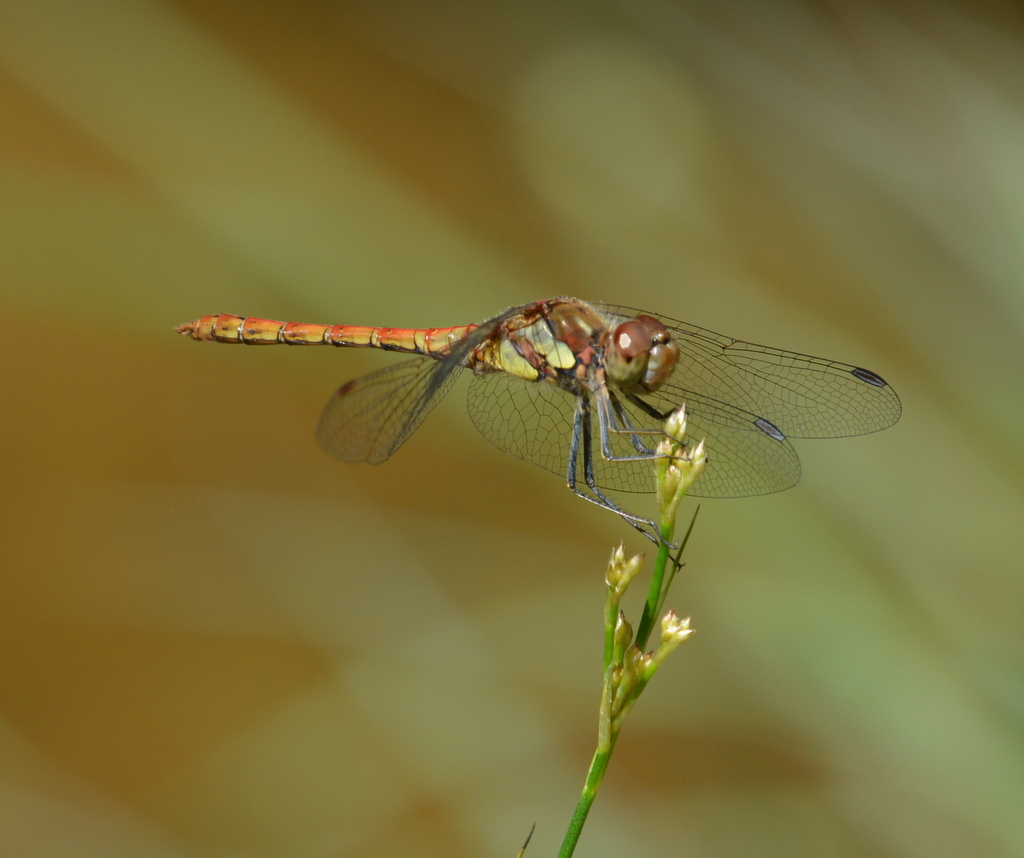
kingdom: Animalia
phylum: Arthropoda
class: Insecta
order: Odonata
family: Libellulidae
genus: Sympetrum
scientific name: Sympetrum striolatum
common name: Common darter
